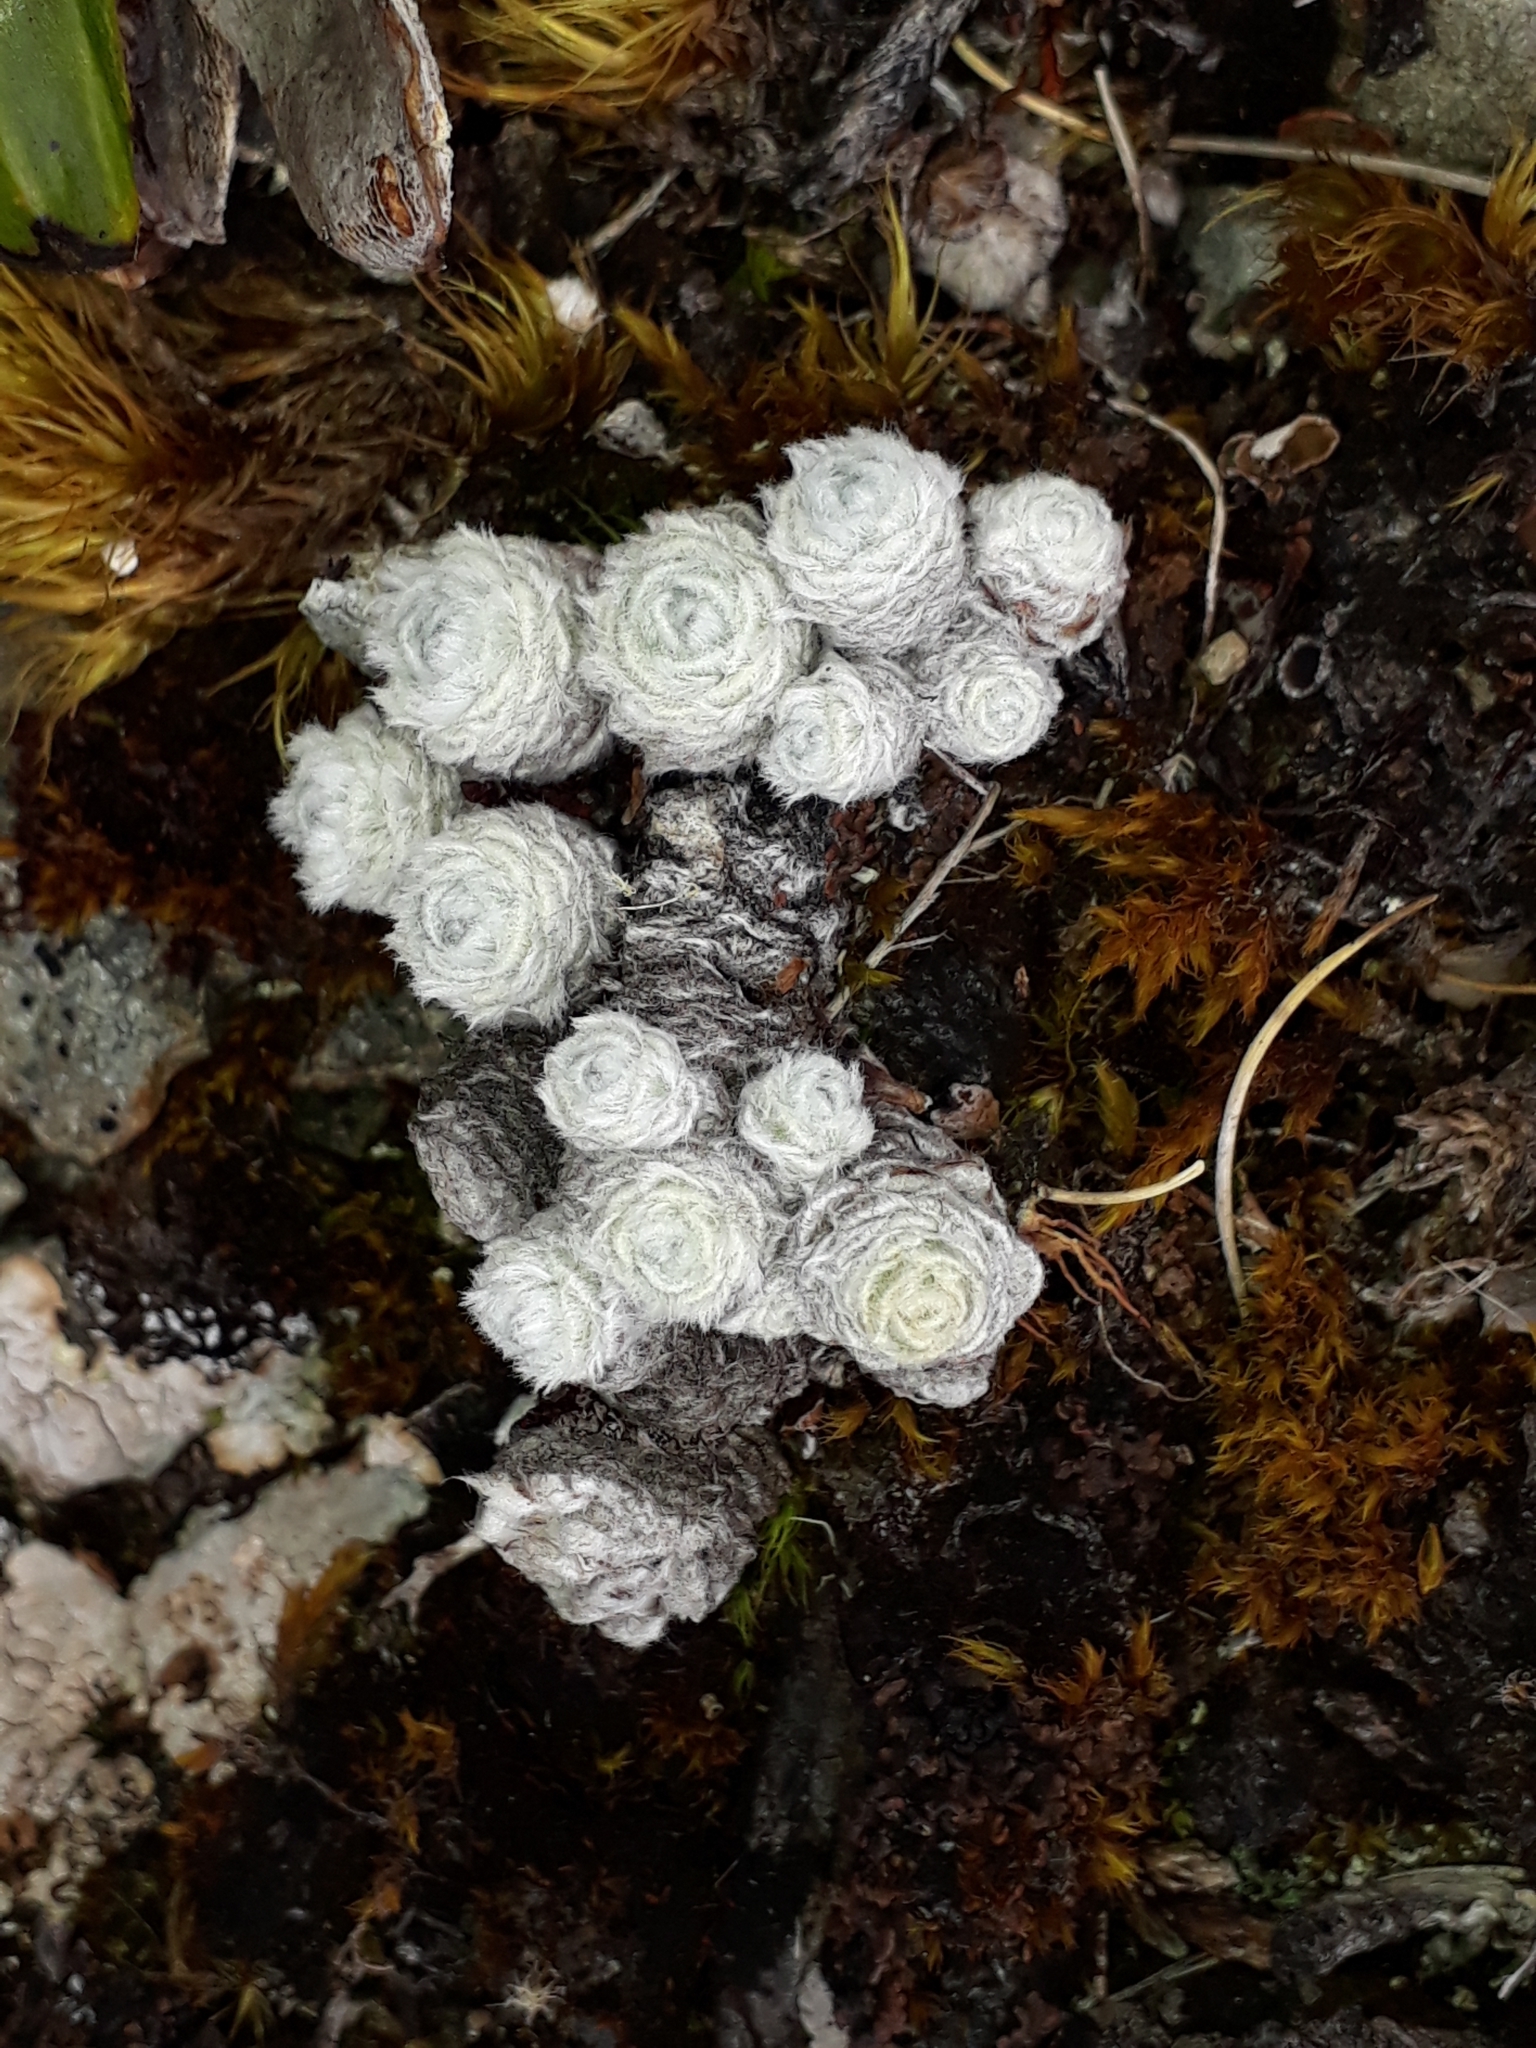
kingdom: Plantae
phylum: Tracheophyta
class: Magnoliopsida
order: Asterales
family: Asteraceae
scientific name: Asteraceae
